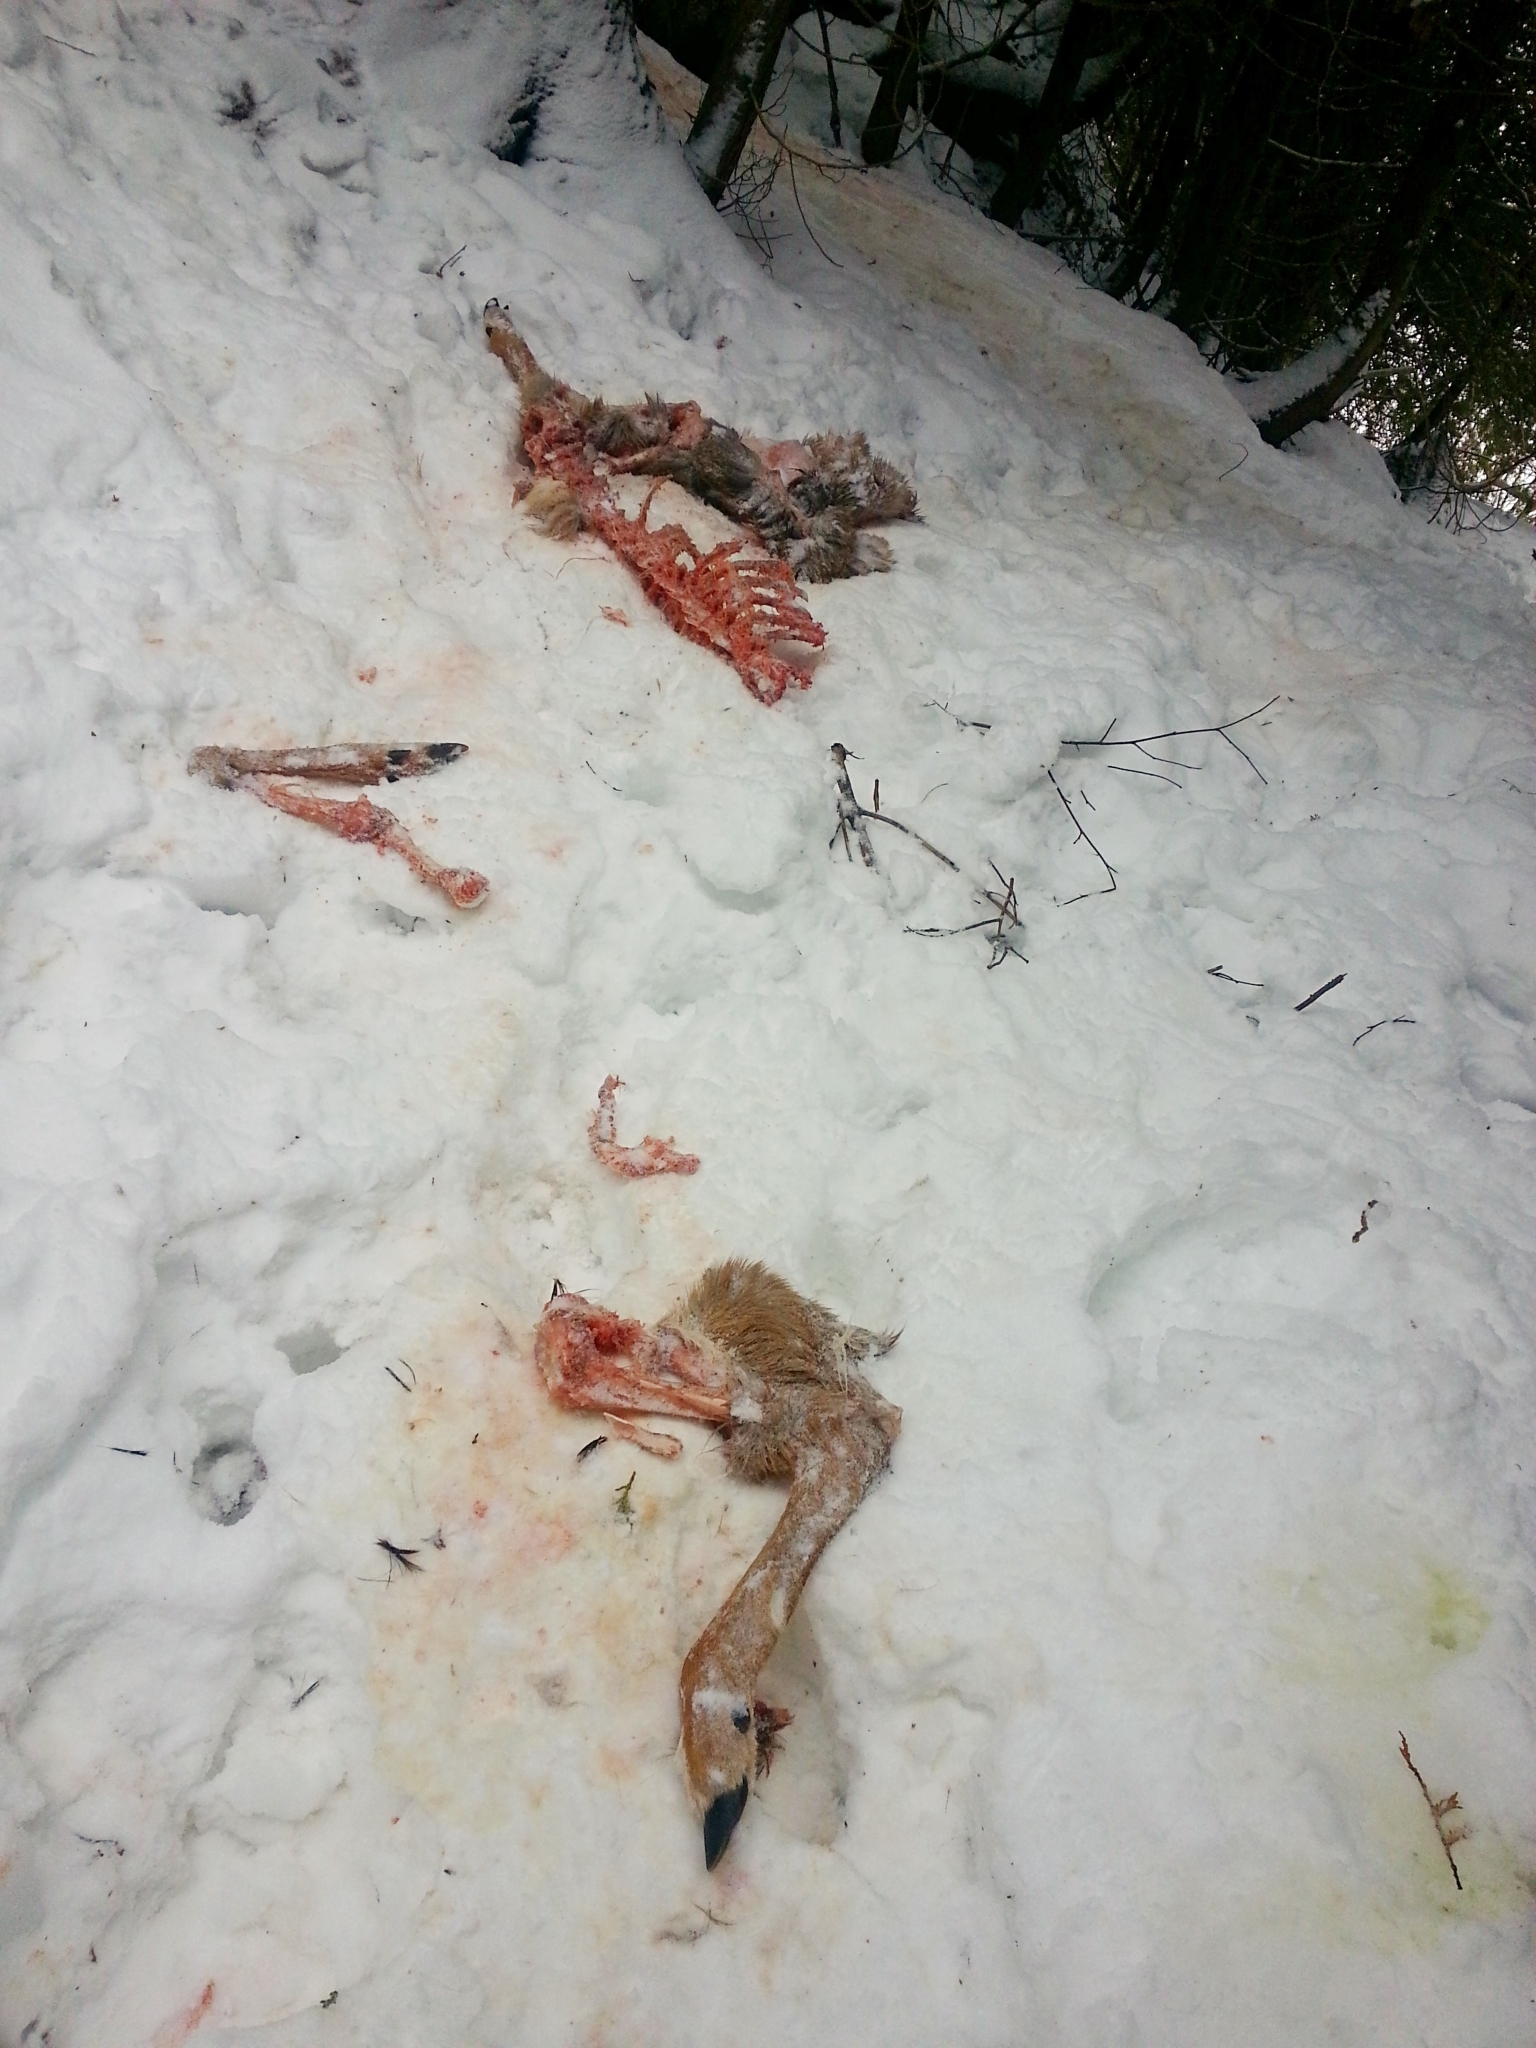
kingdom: Animalia
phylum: Chordata
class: Mammalia
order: Artiodactyla
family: Cervidae
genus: Odocoileus
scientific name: Odocoileus virginianus
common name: White-tailed deer
